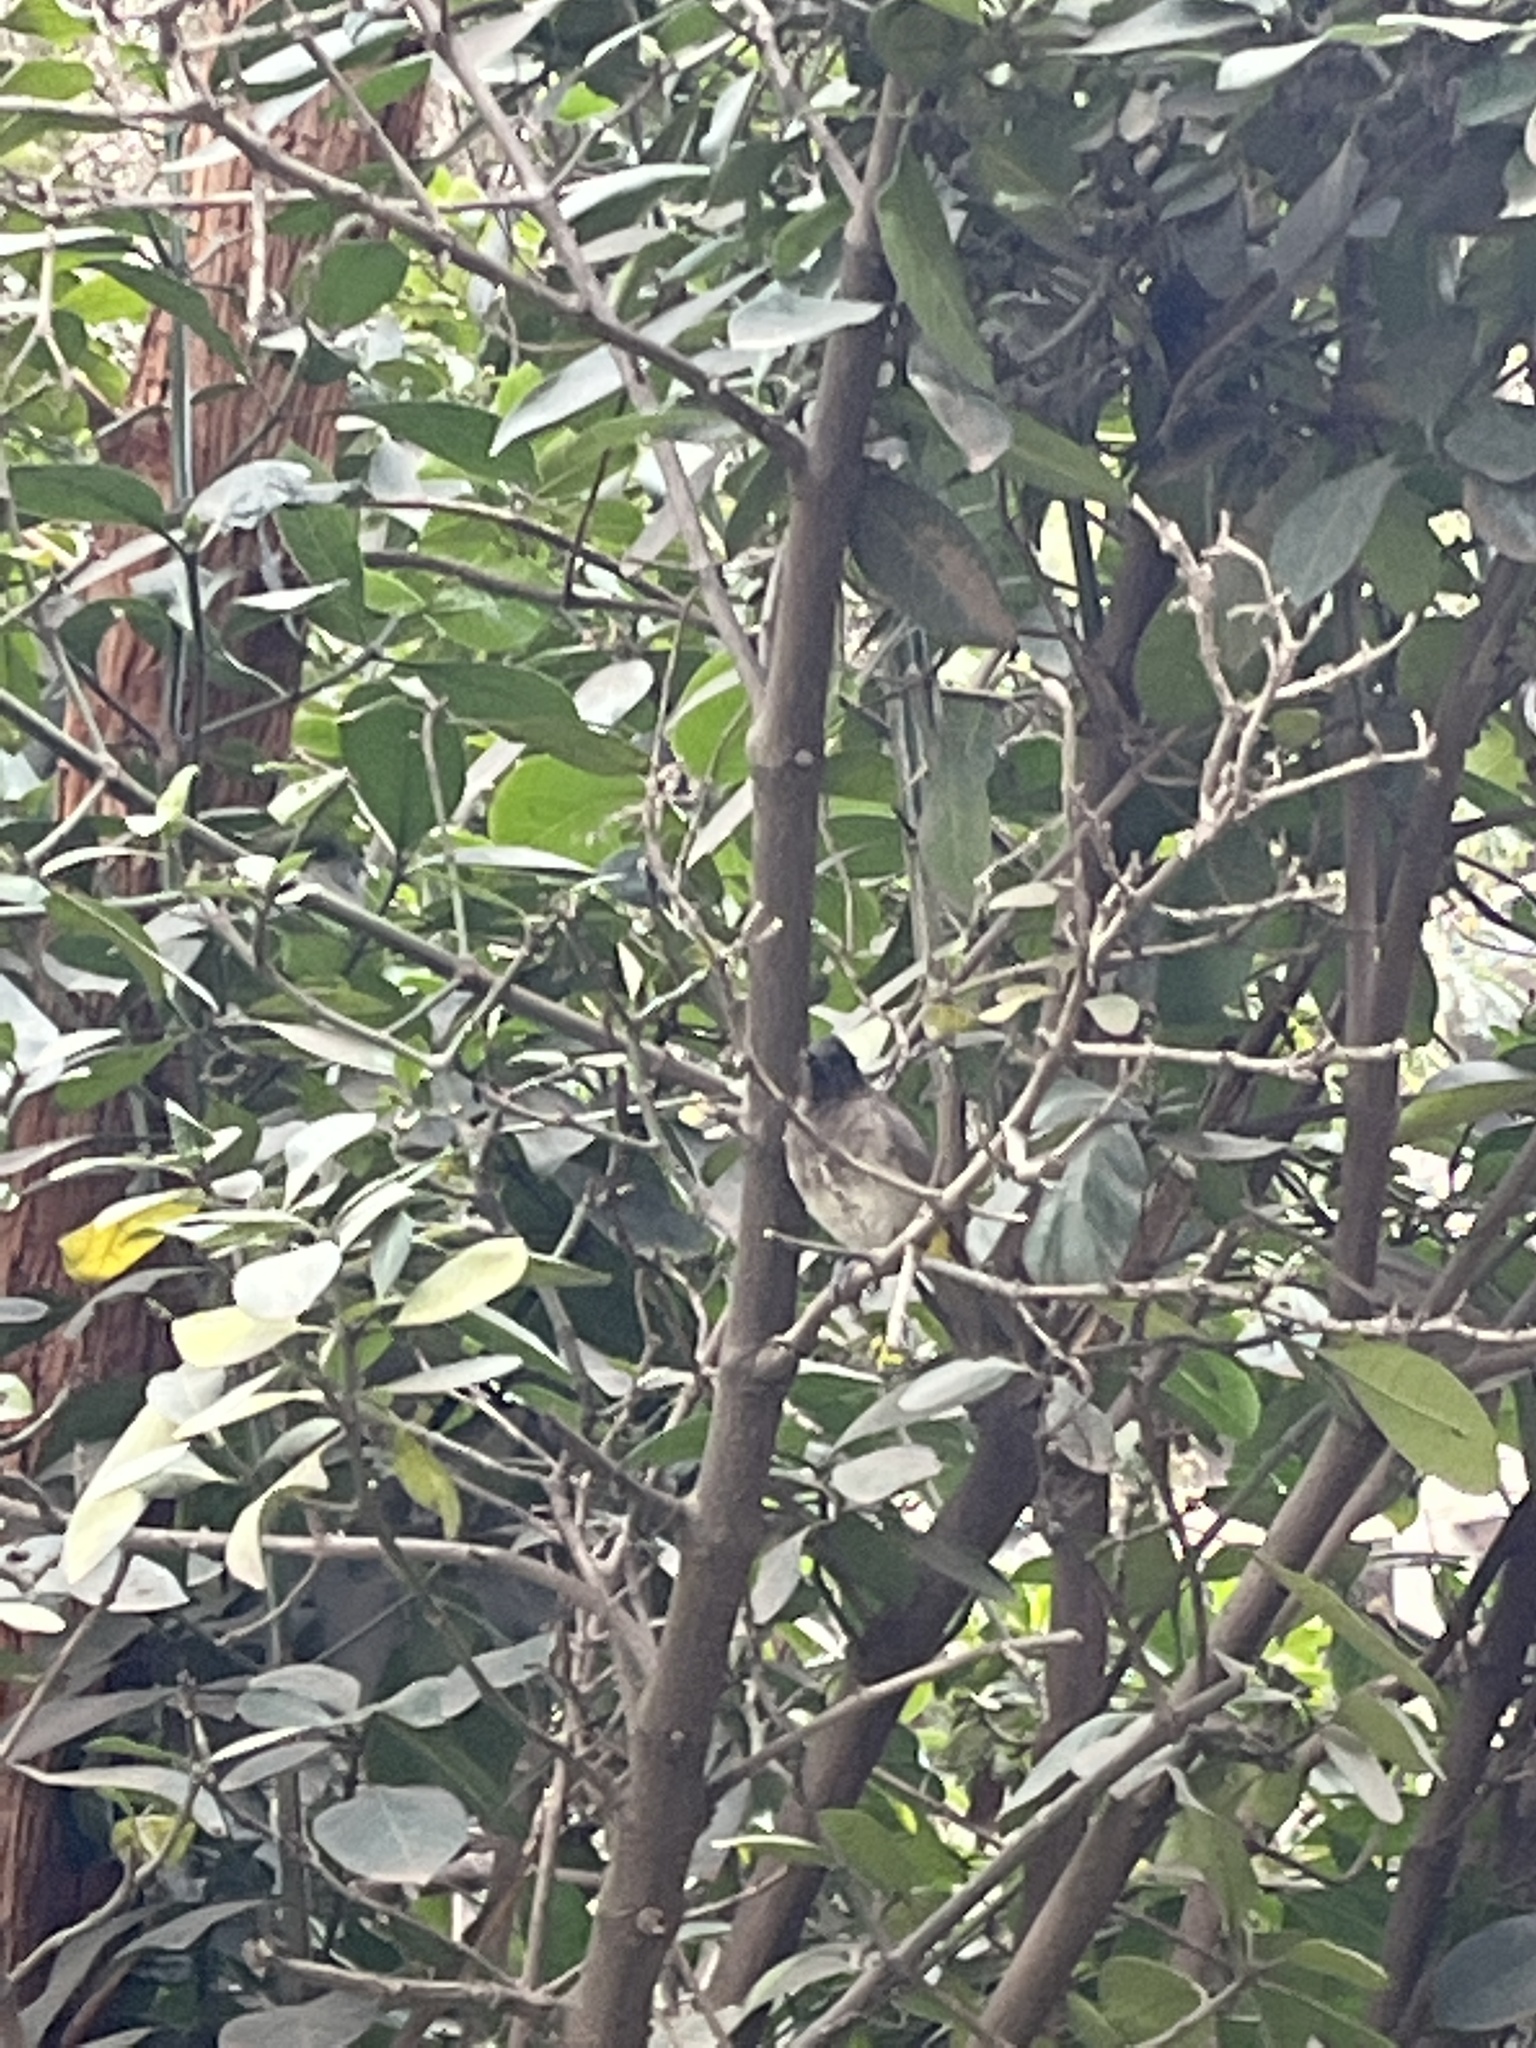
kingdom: Animalia
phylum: Chordata
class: Aves
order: Passeriformes
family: Pycnonotidae
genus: Pycnonotus
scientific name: Pycnonotus barbatus
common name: Common bulbul
